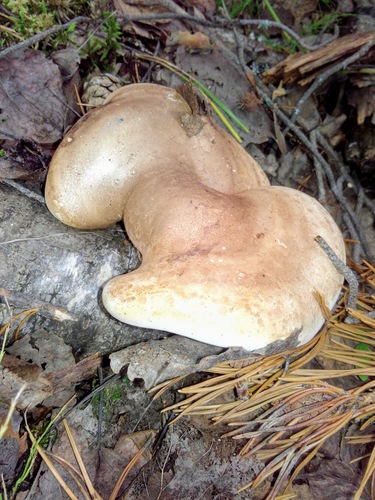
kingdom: Fungi
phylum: Basidiomycota
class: Agaricomycetes
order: Polyporales
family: Fomitopsidaceae
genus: Fomitopsis
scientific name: Fomitopsis betulina
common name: Birch polypore
